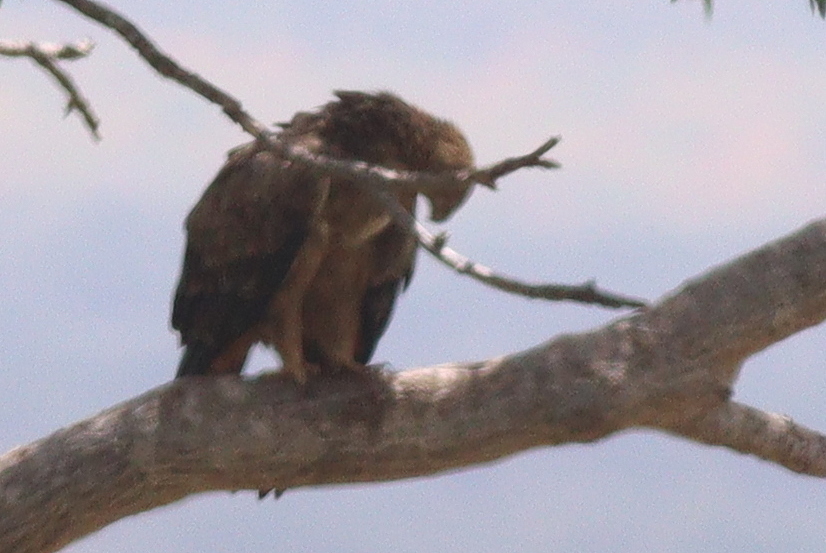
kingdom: Animalia
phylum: Chordata
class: Aves
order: Accipitriformes
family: Accipitridae
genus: Aquila
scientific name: Aquila rapax
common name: Tawny eagle
